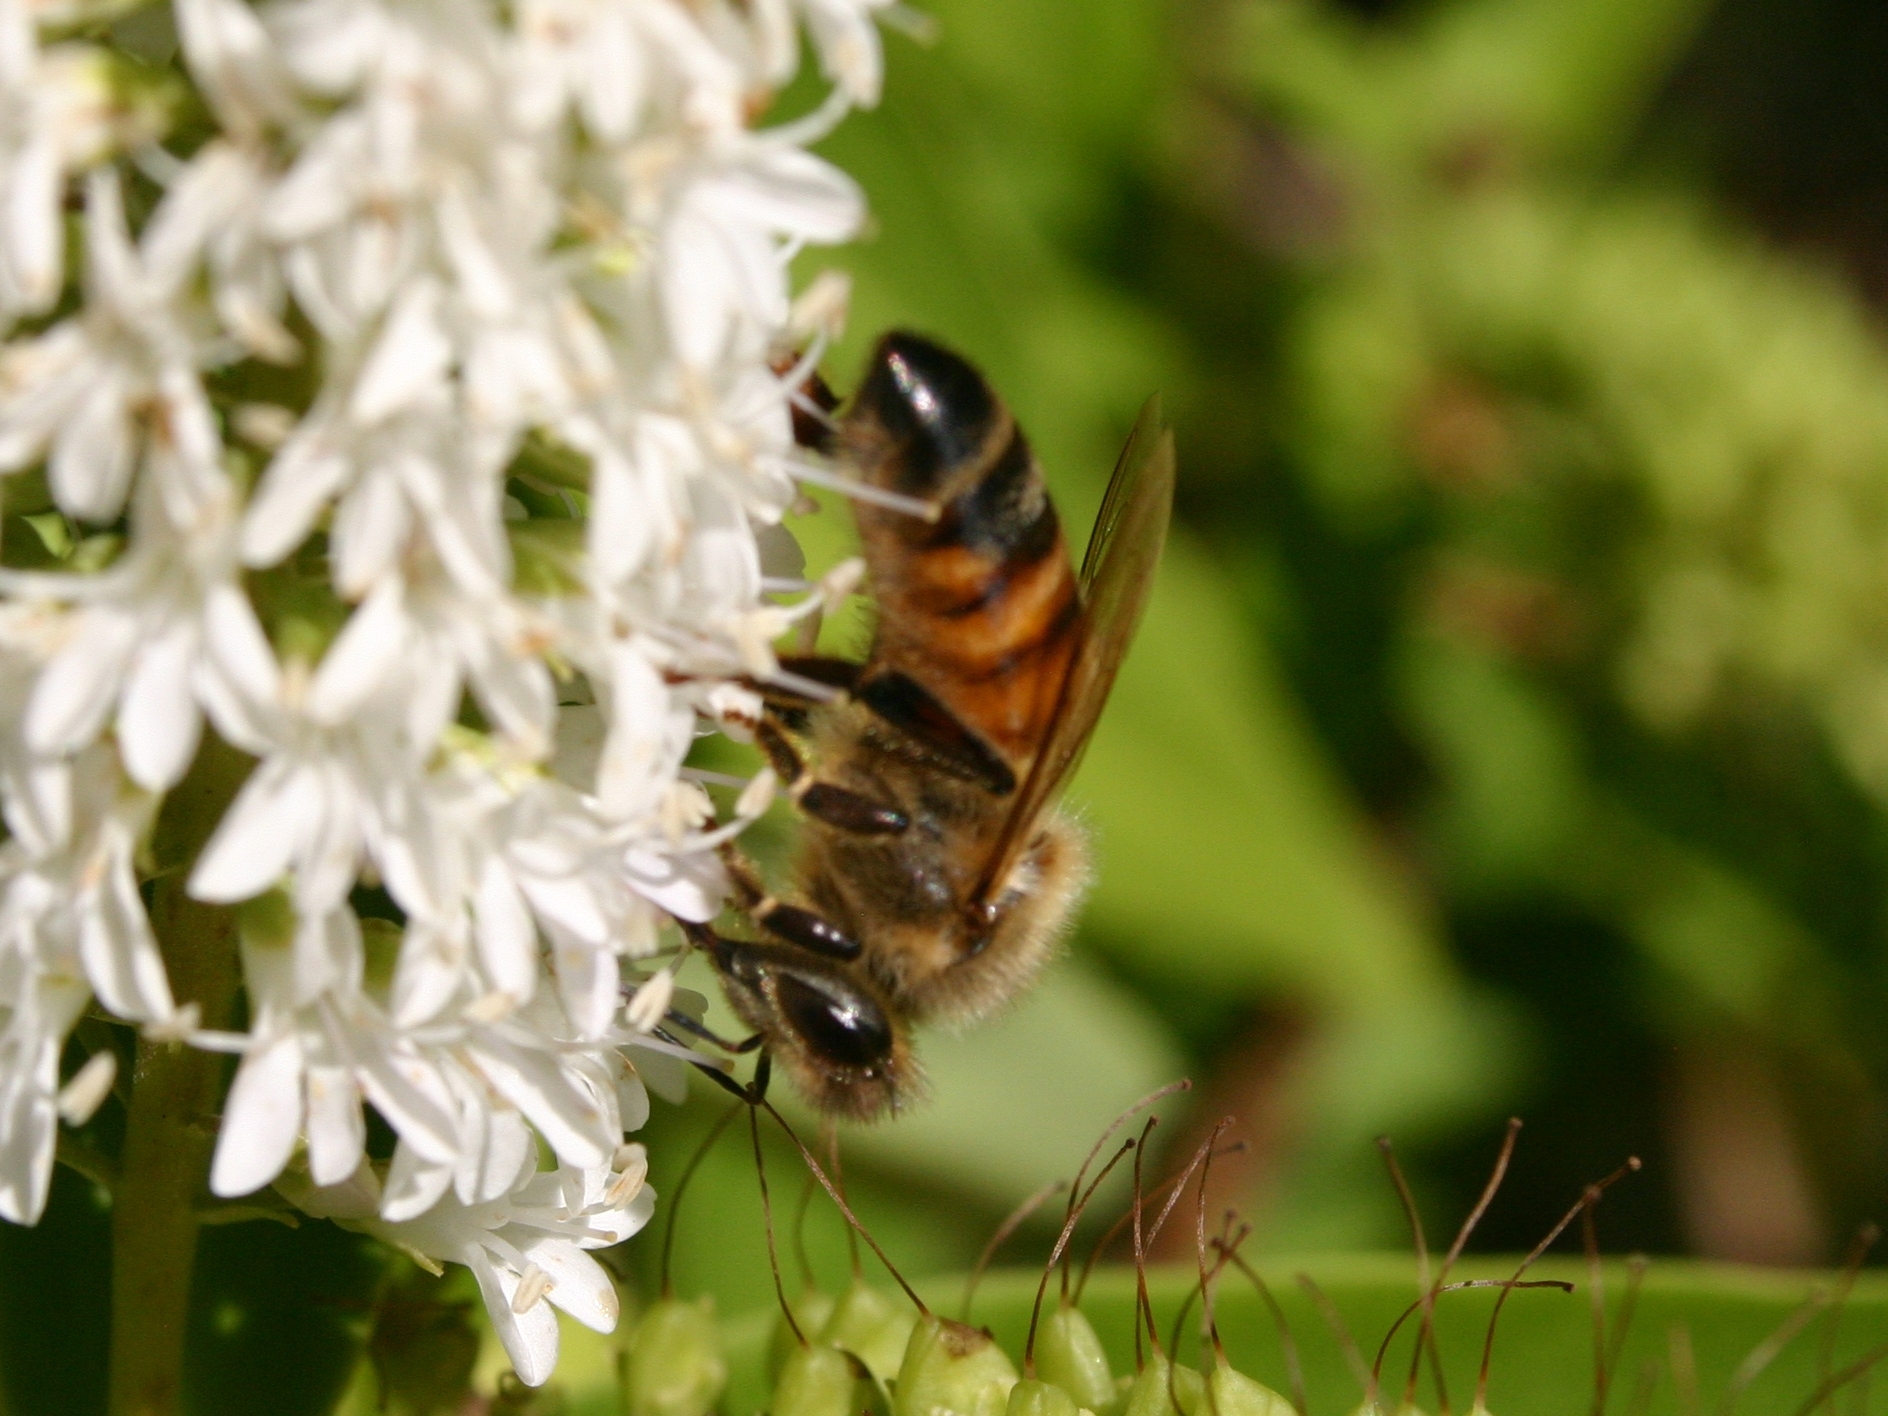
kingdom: Animalia
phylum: Arthropoda
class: Insecta
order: Hymenoptera
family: Apidae
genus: Apis
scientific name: Apis mellifera
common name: Honey bee
